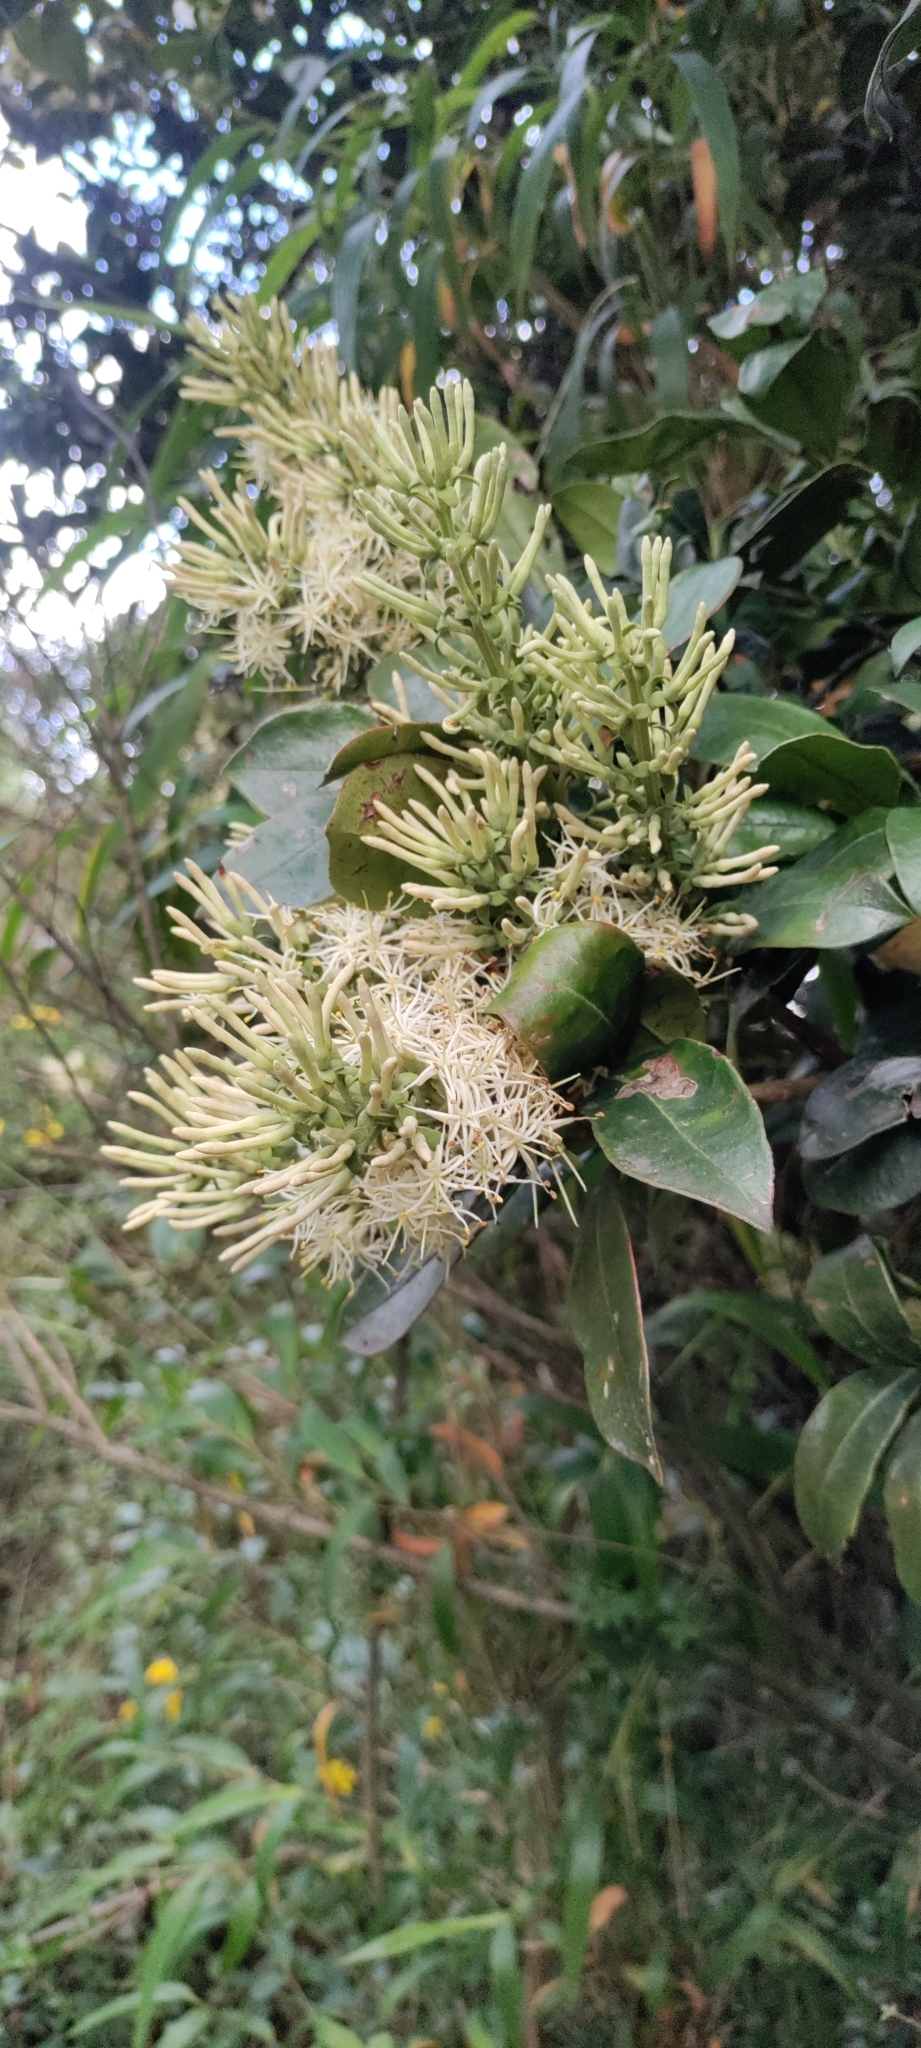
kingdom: Plantae
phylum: Tracheophyta
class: Magnoliopsida
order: Santalales
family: Loranthaceae
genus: Gaiadendron
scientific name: Gaiadendron punctatum
